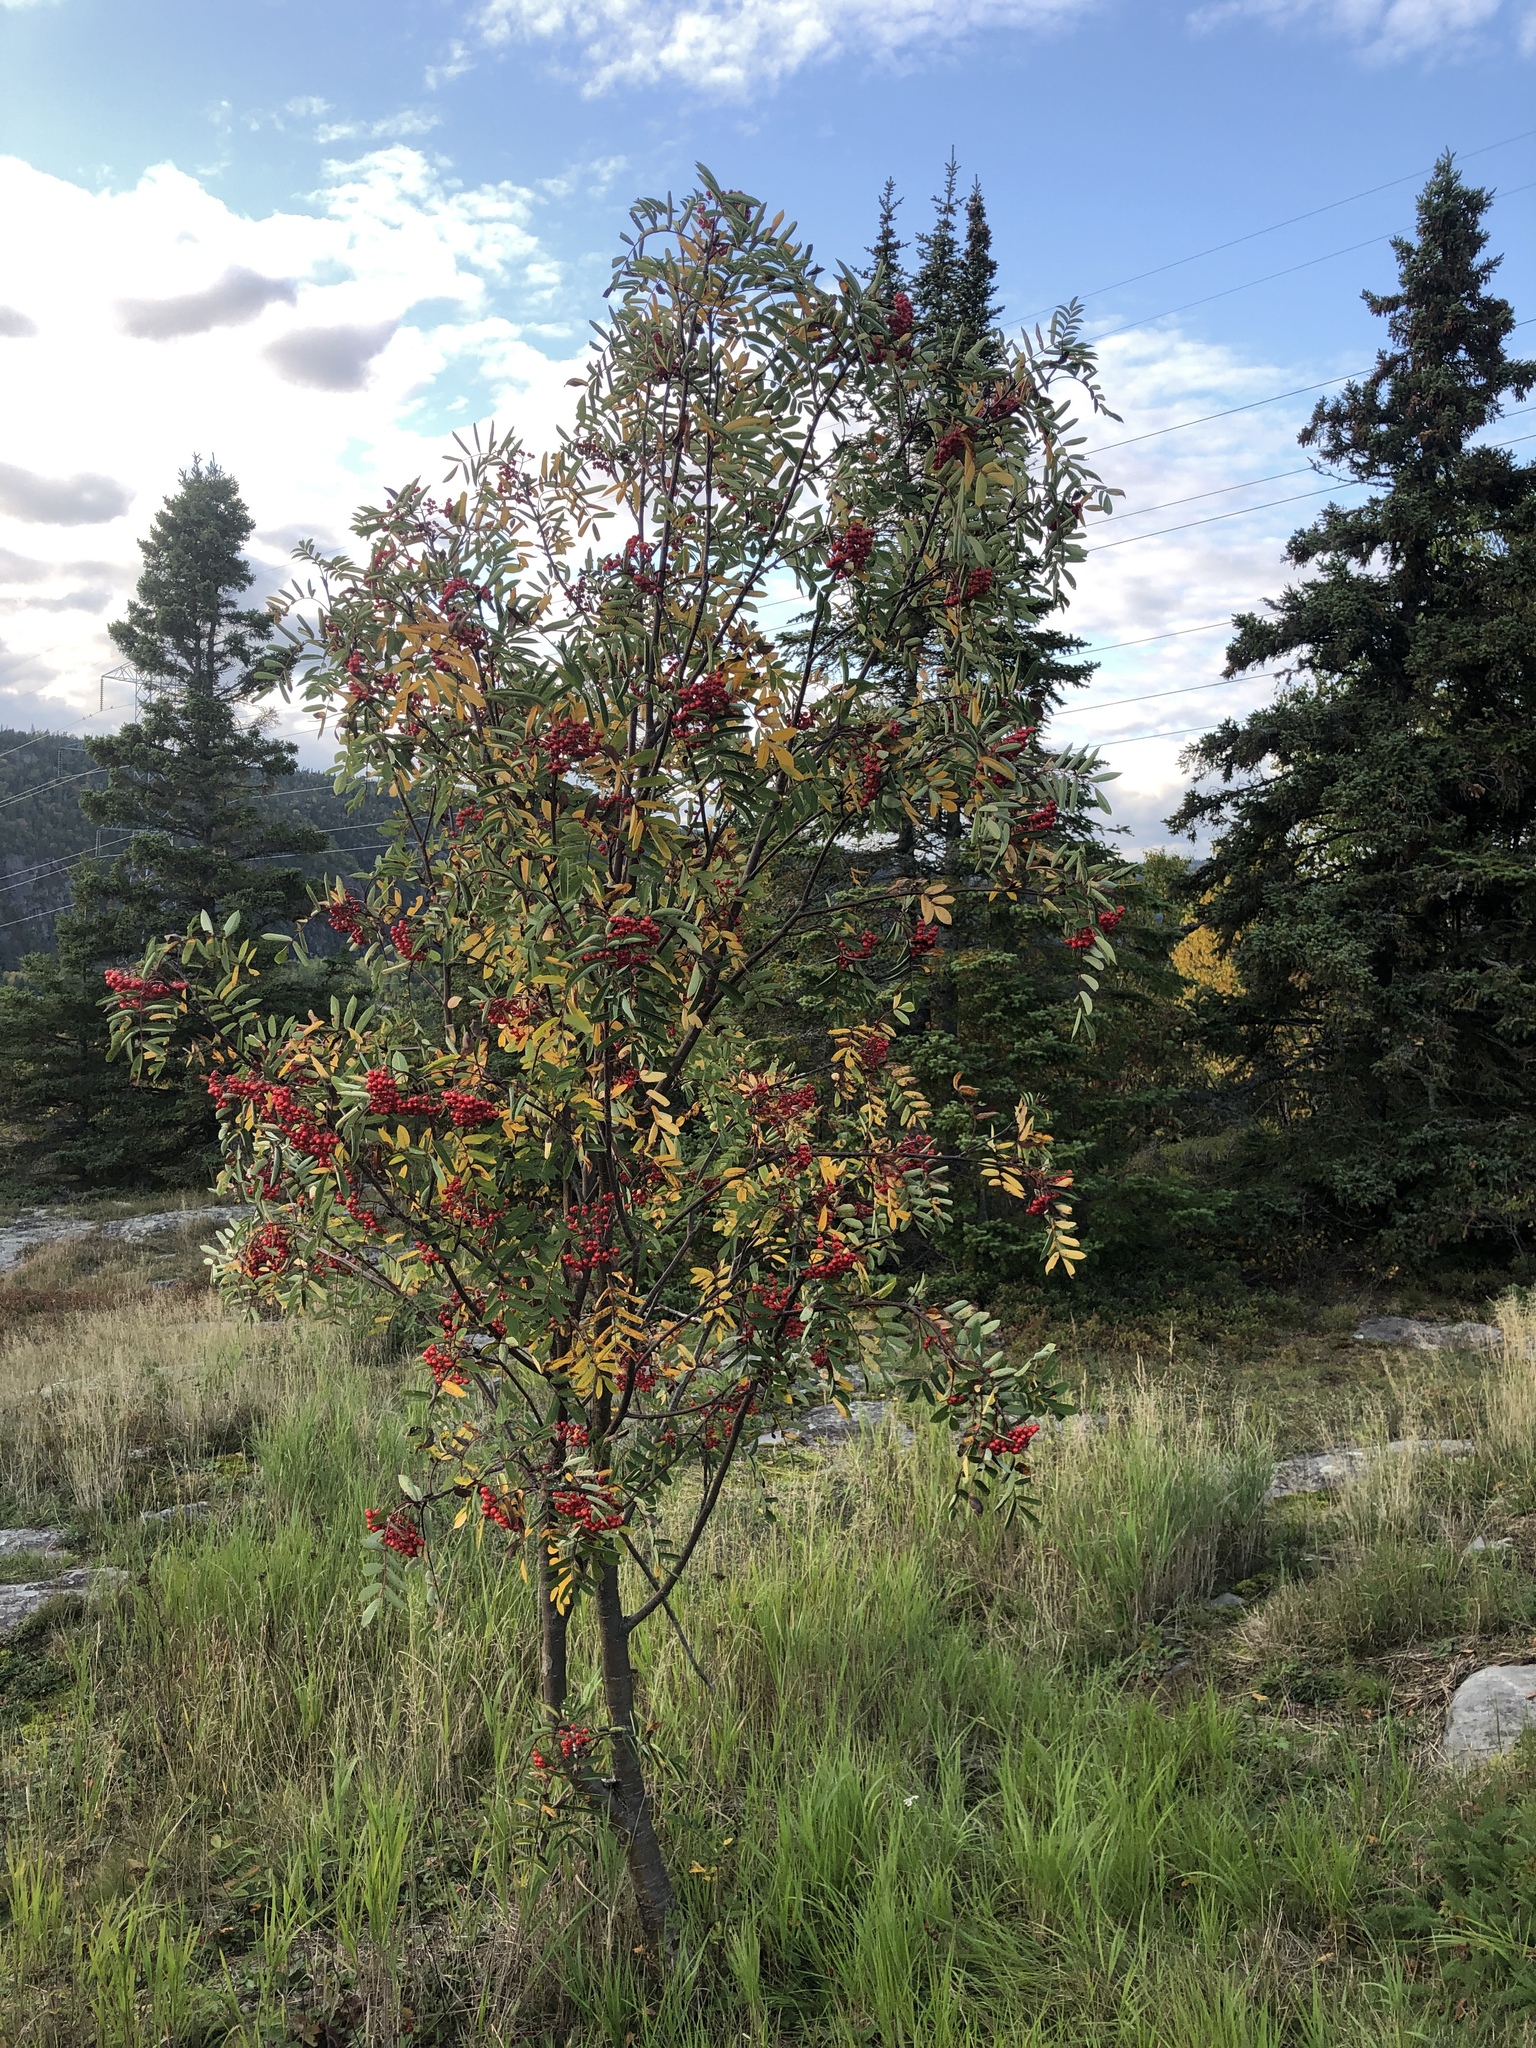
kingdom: Plantae
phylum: Tracheophyta
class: Magnoliopsida
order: Rosales
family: Rosaceae
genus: Sorbus
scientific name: Sorbus americana
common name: American mountain-ash
